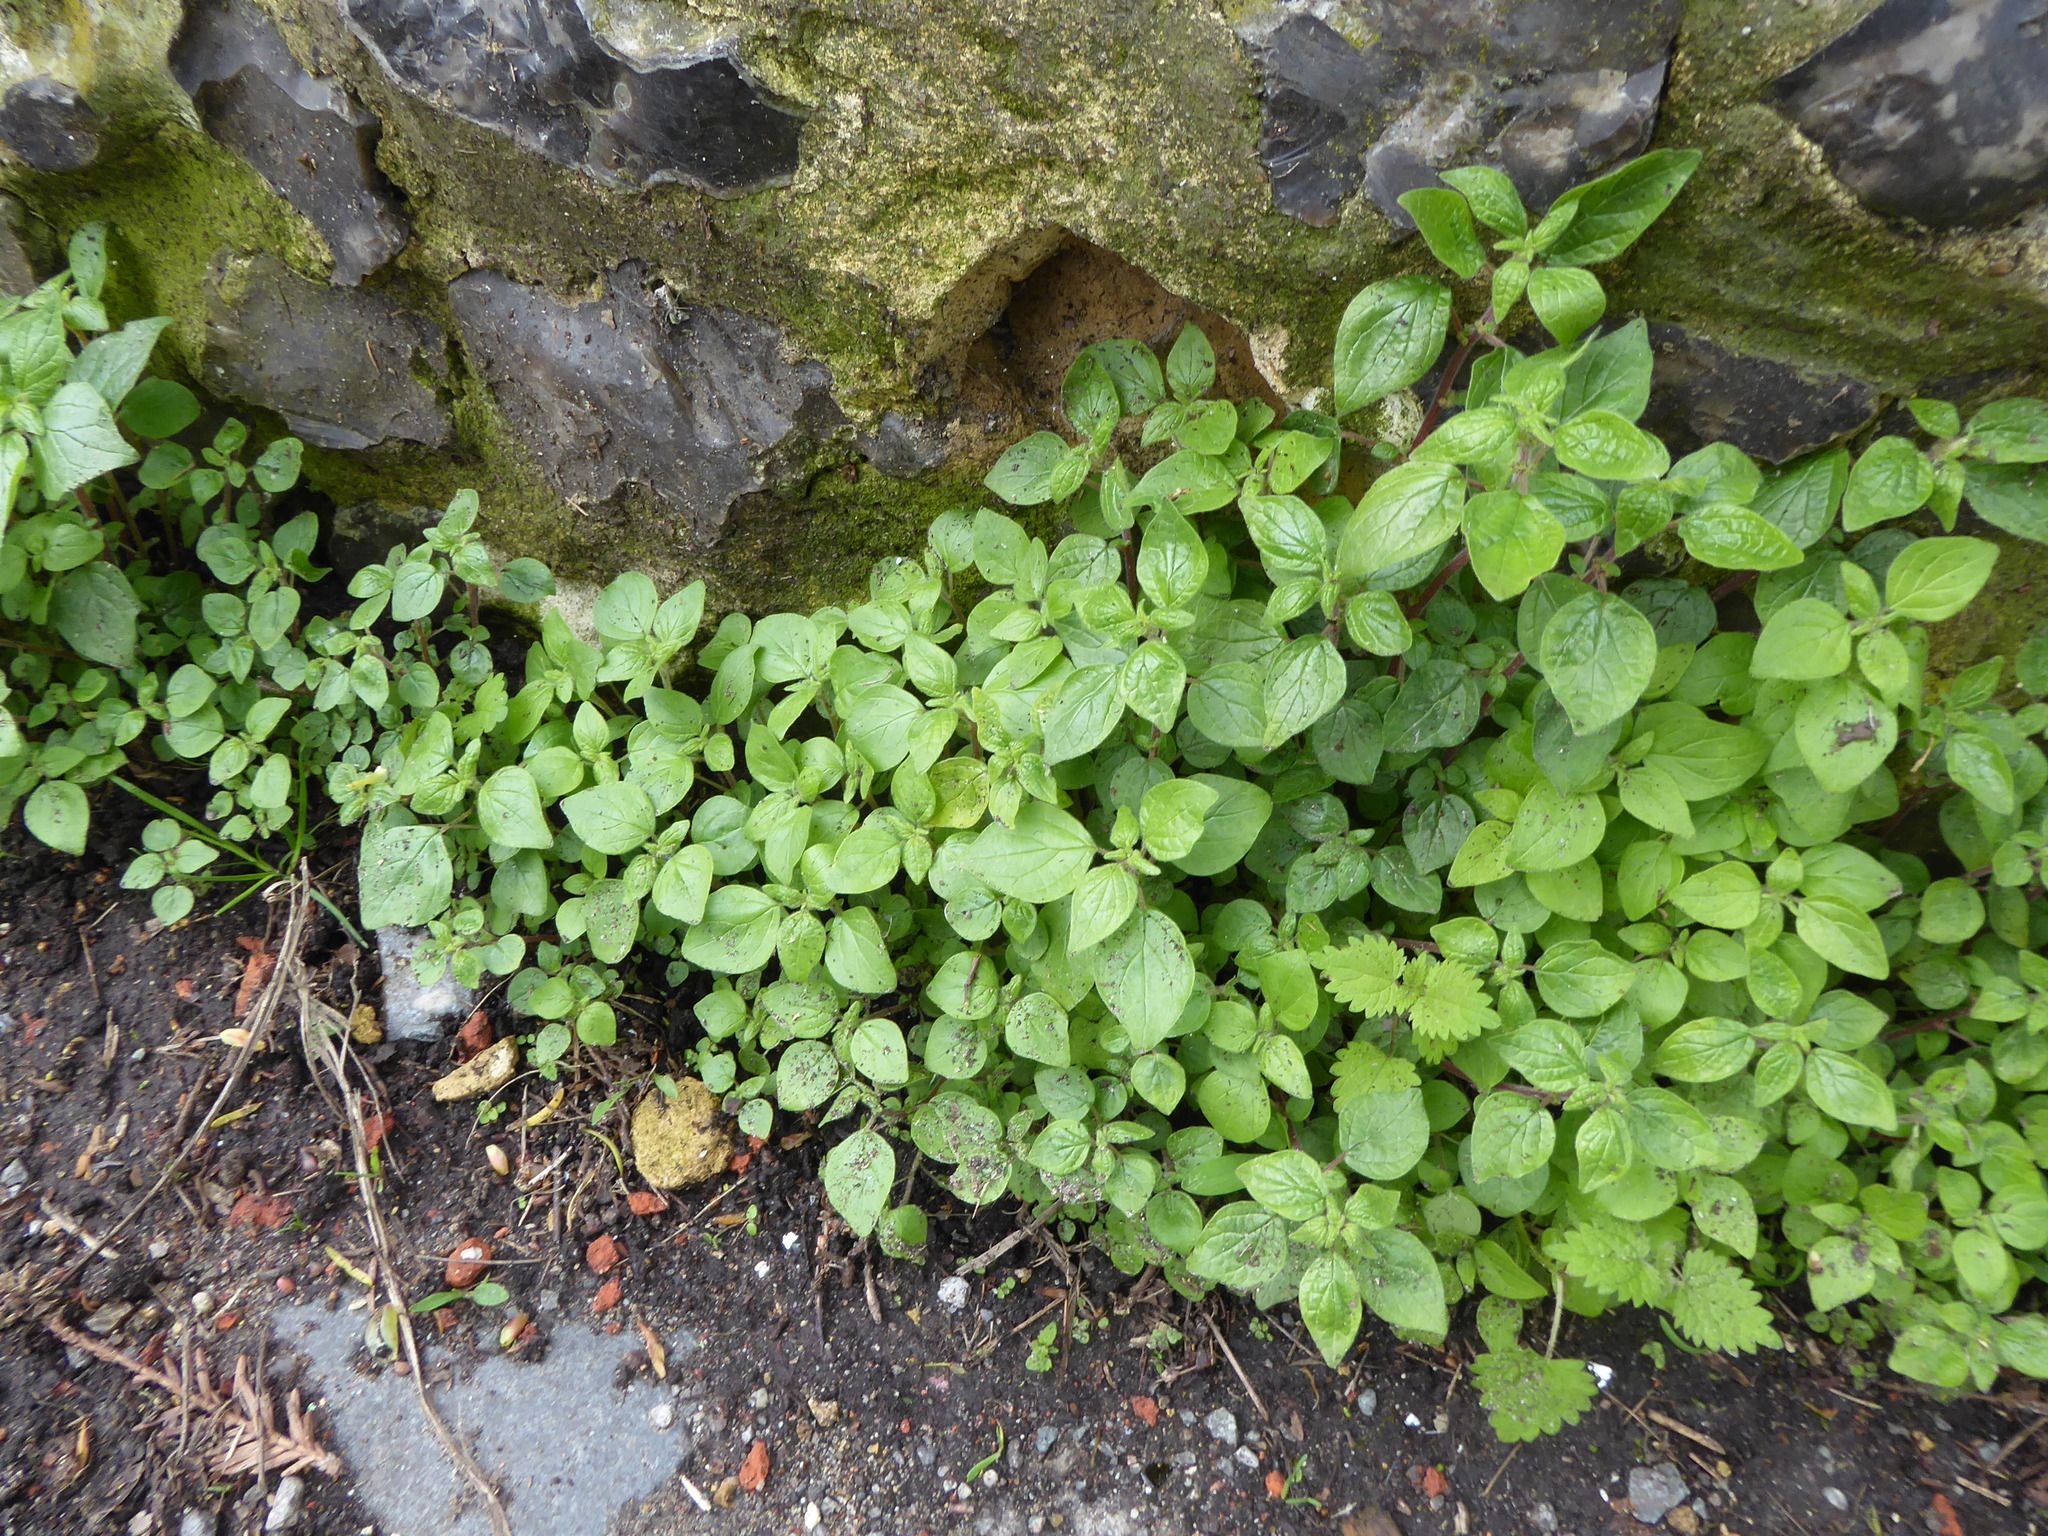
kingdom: Plantae
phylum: Tracheophyta
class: Magnoliopsida
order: Rosales
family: Urticaceae
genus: Parietaria
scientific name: Parietaria judaica
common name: Pellitory-of-the-wall
